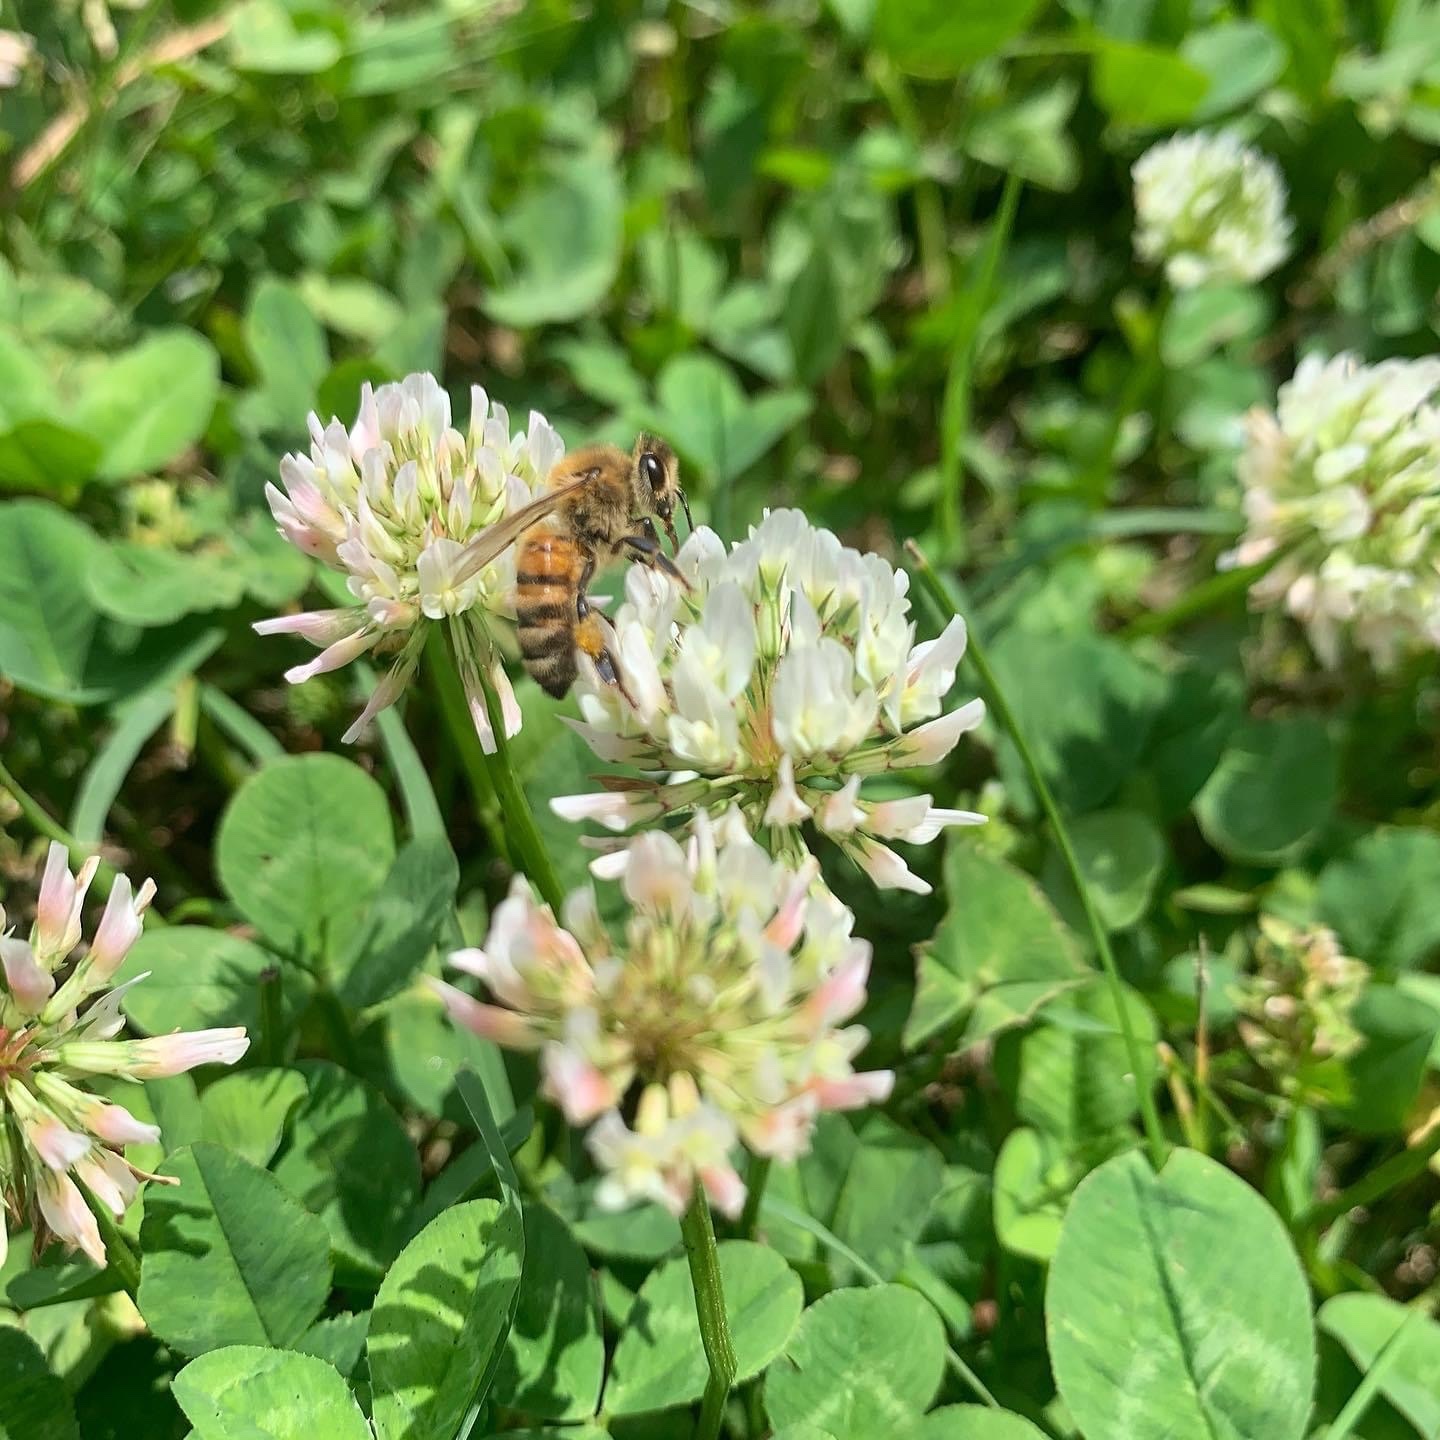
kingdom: Plantae
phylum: Tracheophyta
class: Magnoliopsida
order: Fabales
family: Fabaceae
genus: Trifolium
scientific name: Trifolium repens
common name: White clover
